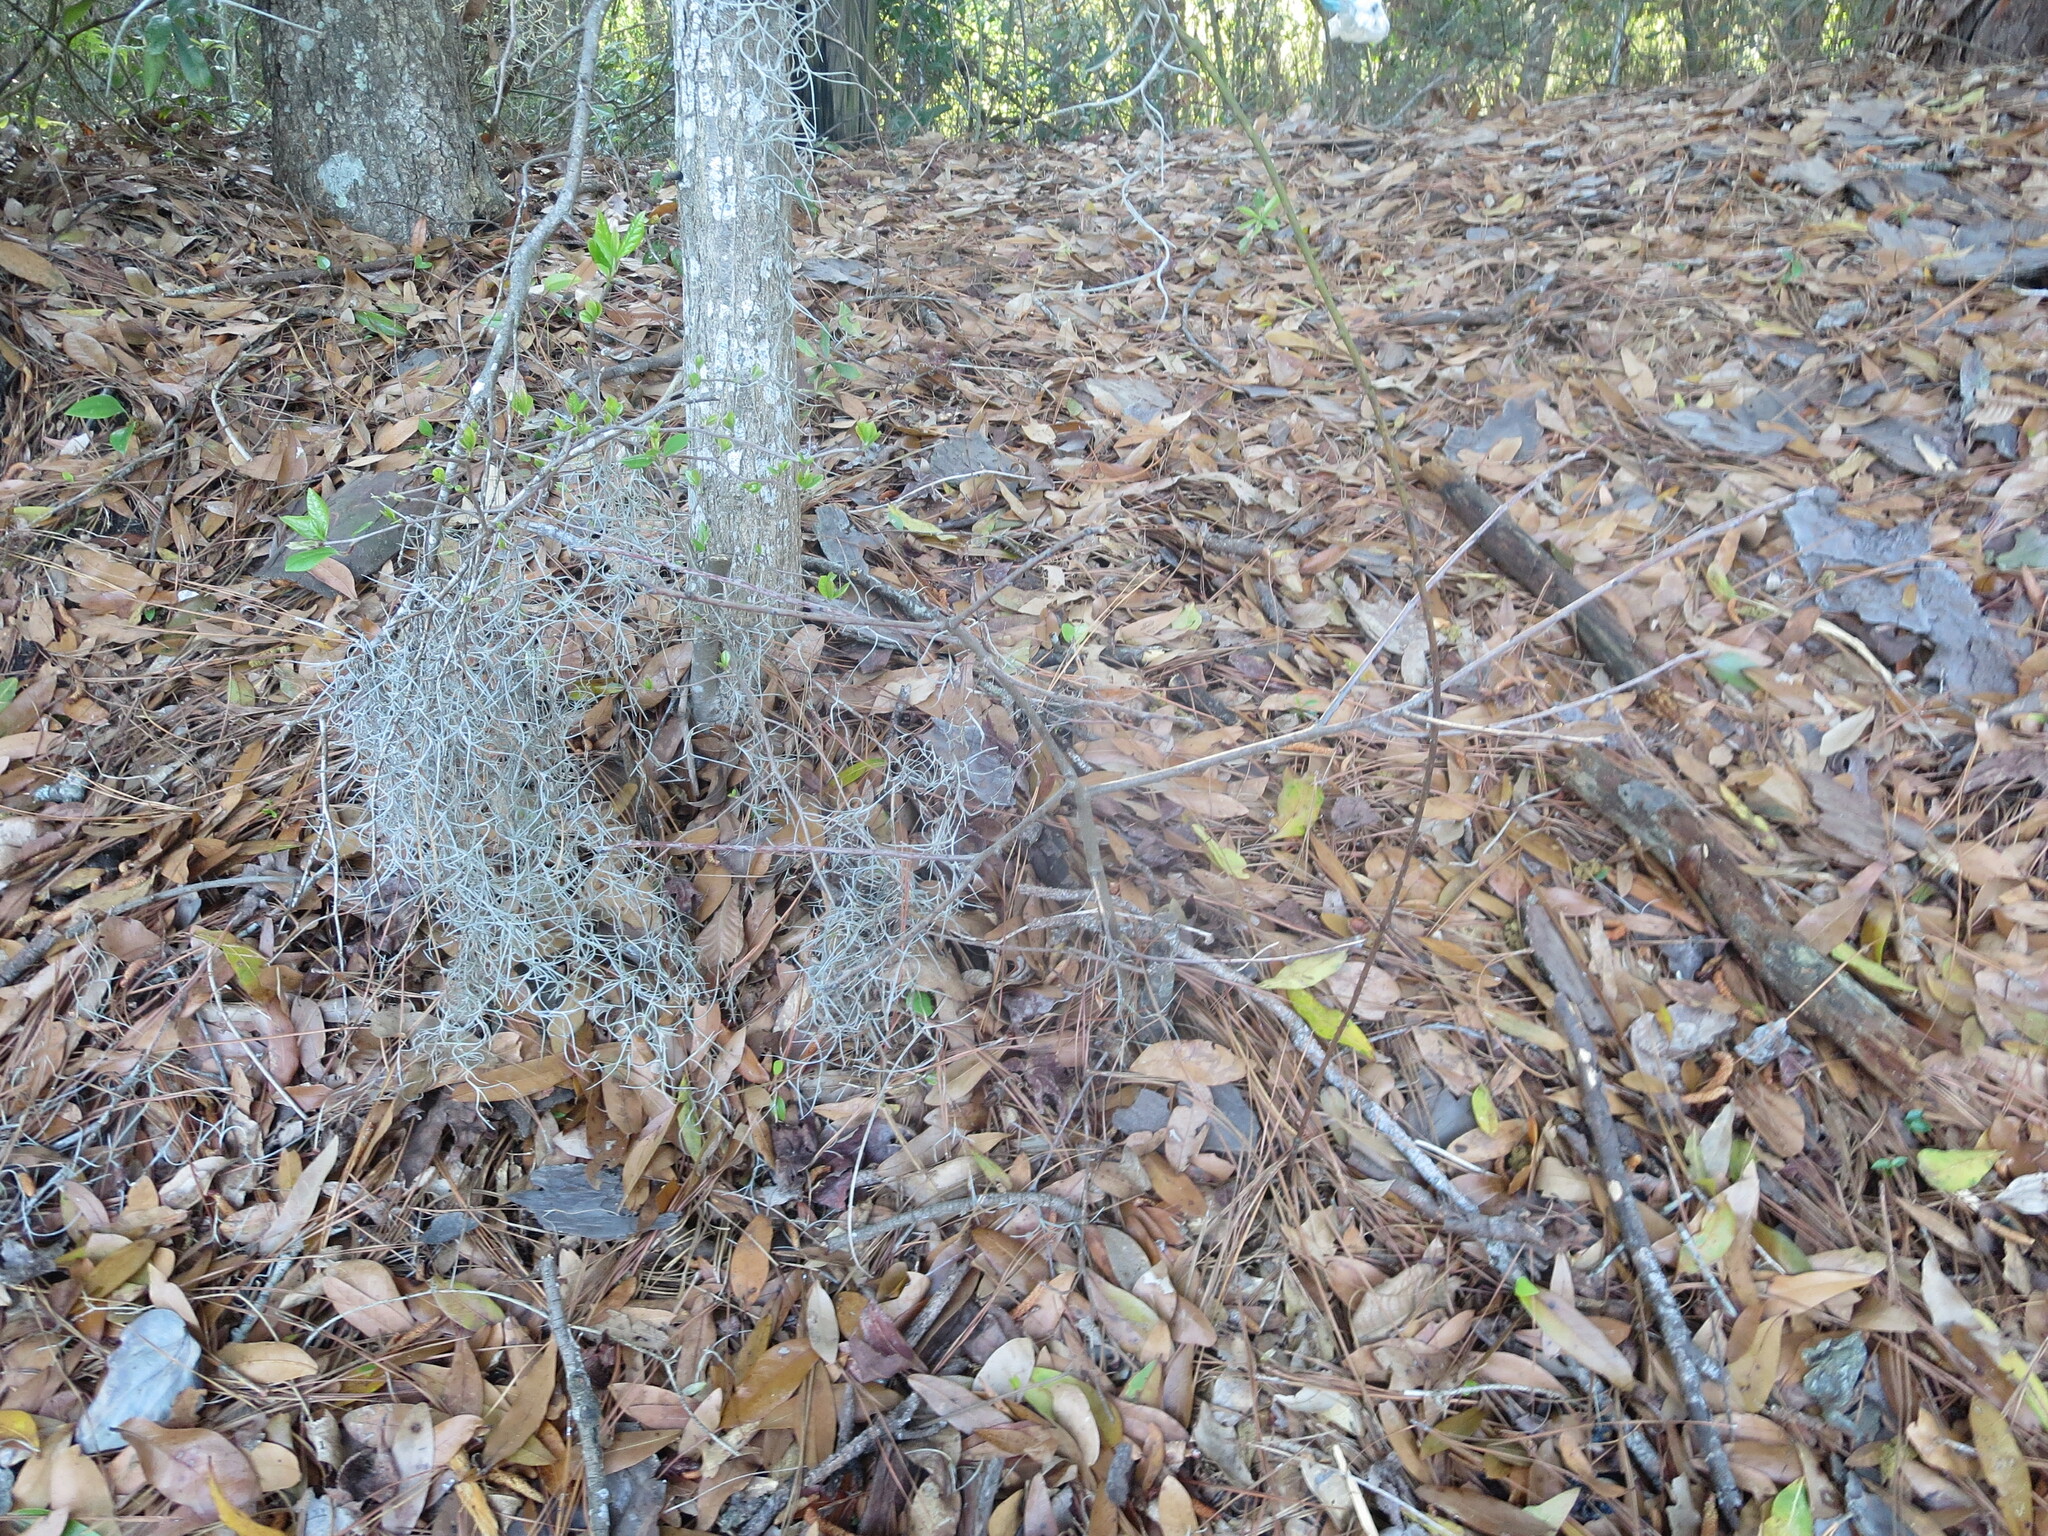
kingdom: Plantae
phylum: Tracheophyta
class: Magnoliopsida
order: Ericales
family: Ebenaceae
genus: Diospyros
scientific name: Diospyros virginiana
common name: Persimmon
